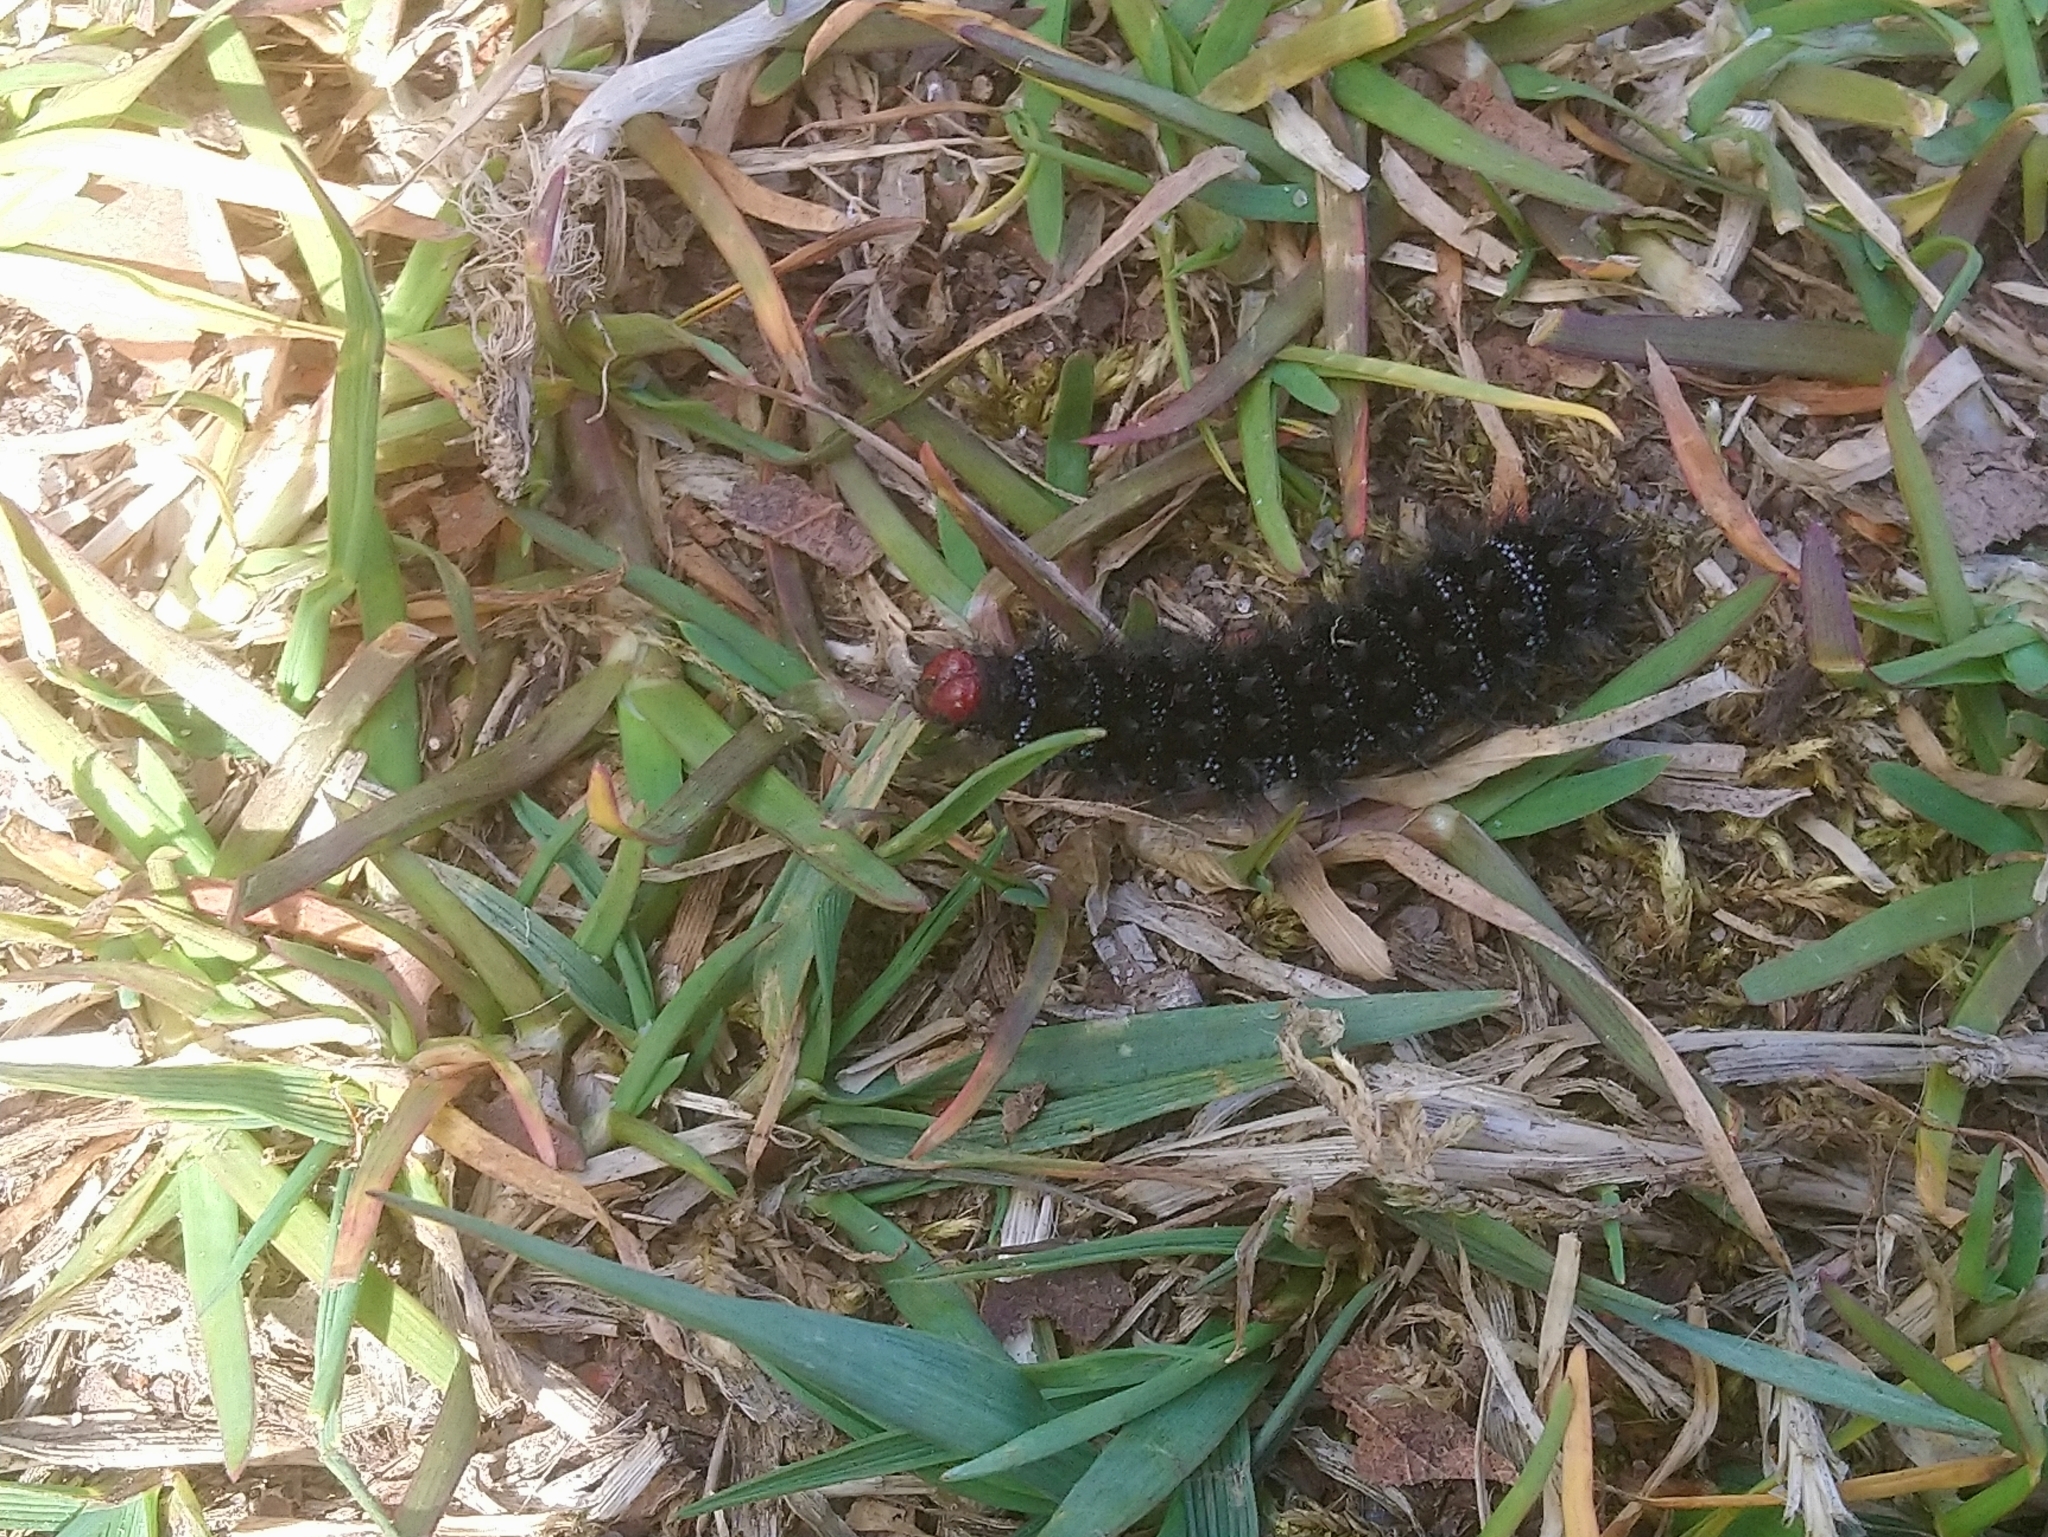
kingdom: Animalia
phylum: Arthropoda
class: Insecta
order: Lepidoptera
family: Nymphalidae
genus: Melitaea
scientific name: Melitaea cinxia
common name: Glanville fritillary
